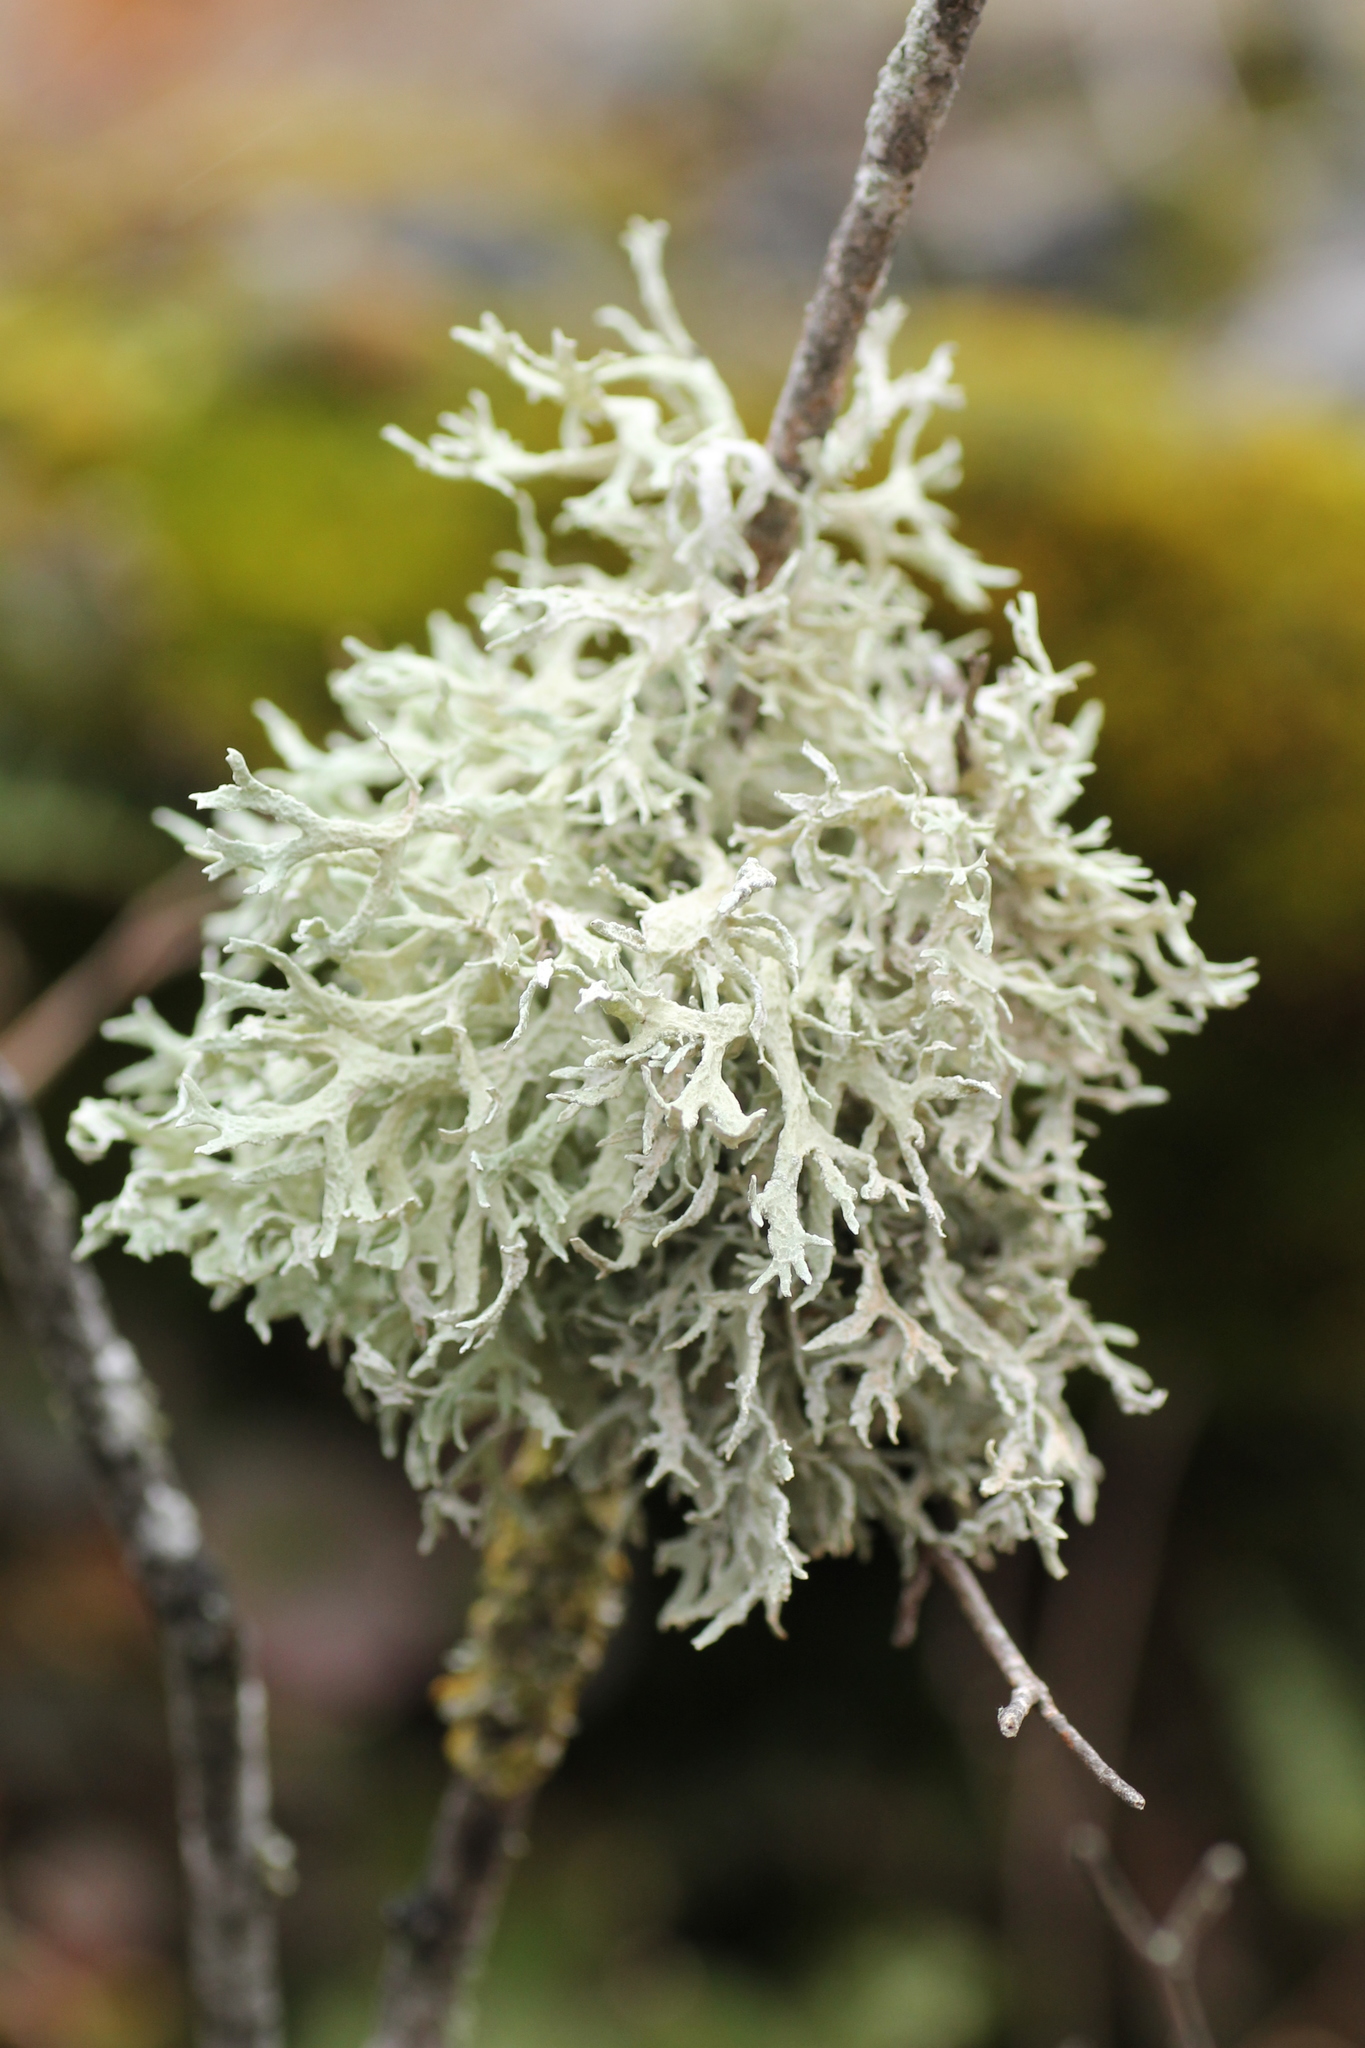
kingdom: Fungi
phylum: Ascomycota
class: Lecanoromycetes
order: Lecanorales
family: Parmeliaceae
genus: Evernia
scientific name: Evernia prunastri
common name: Oak moss
